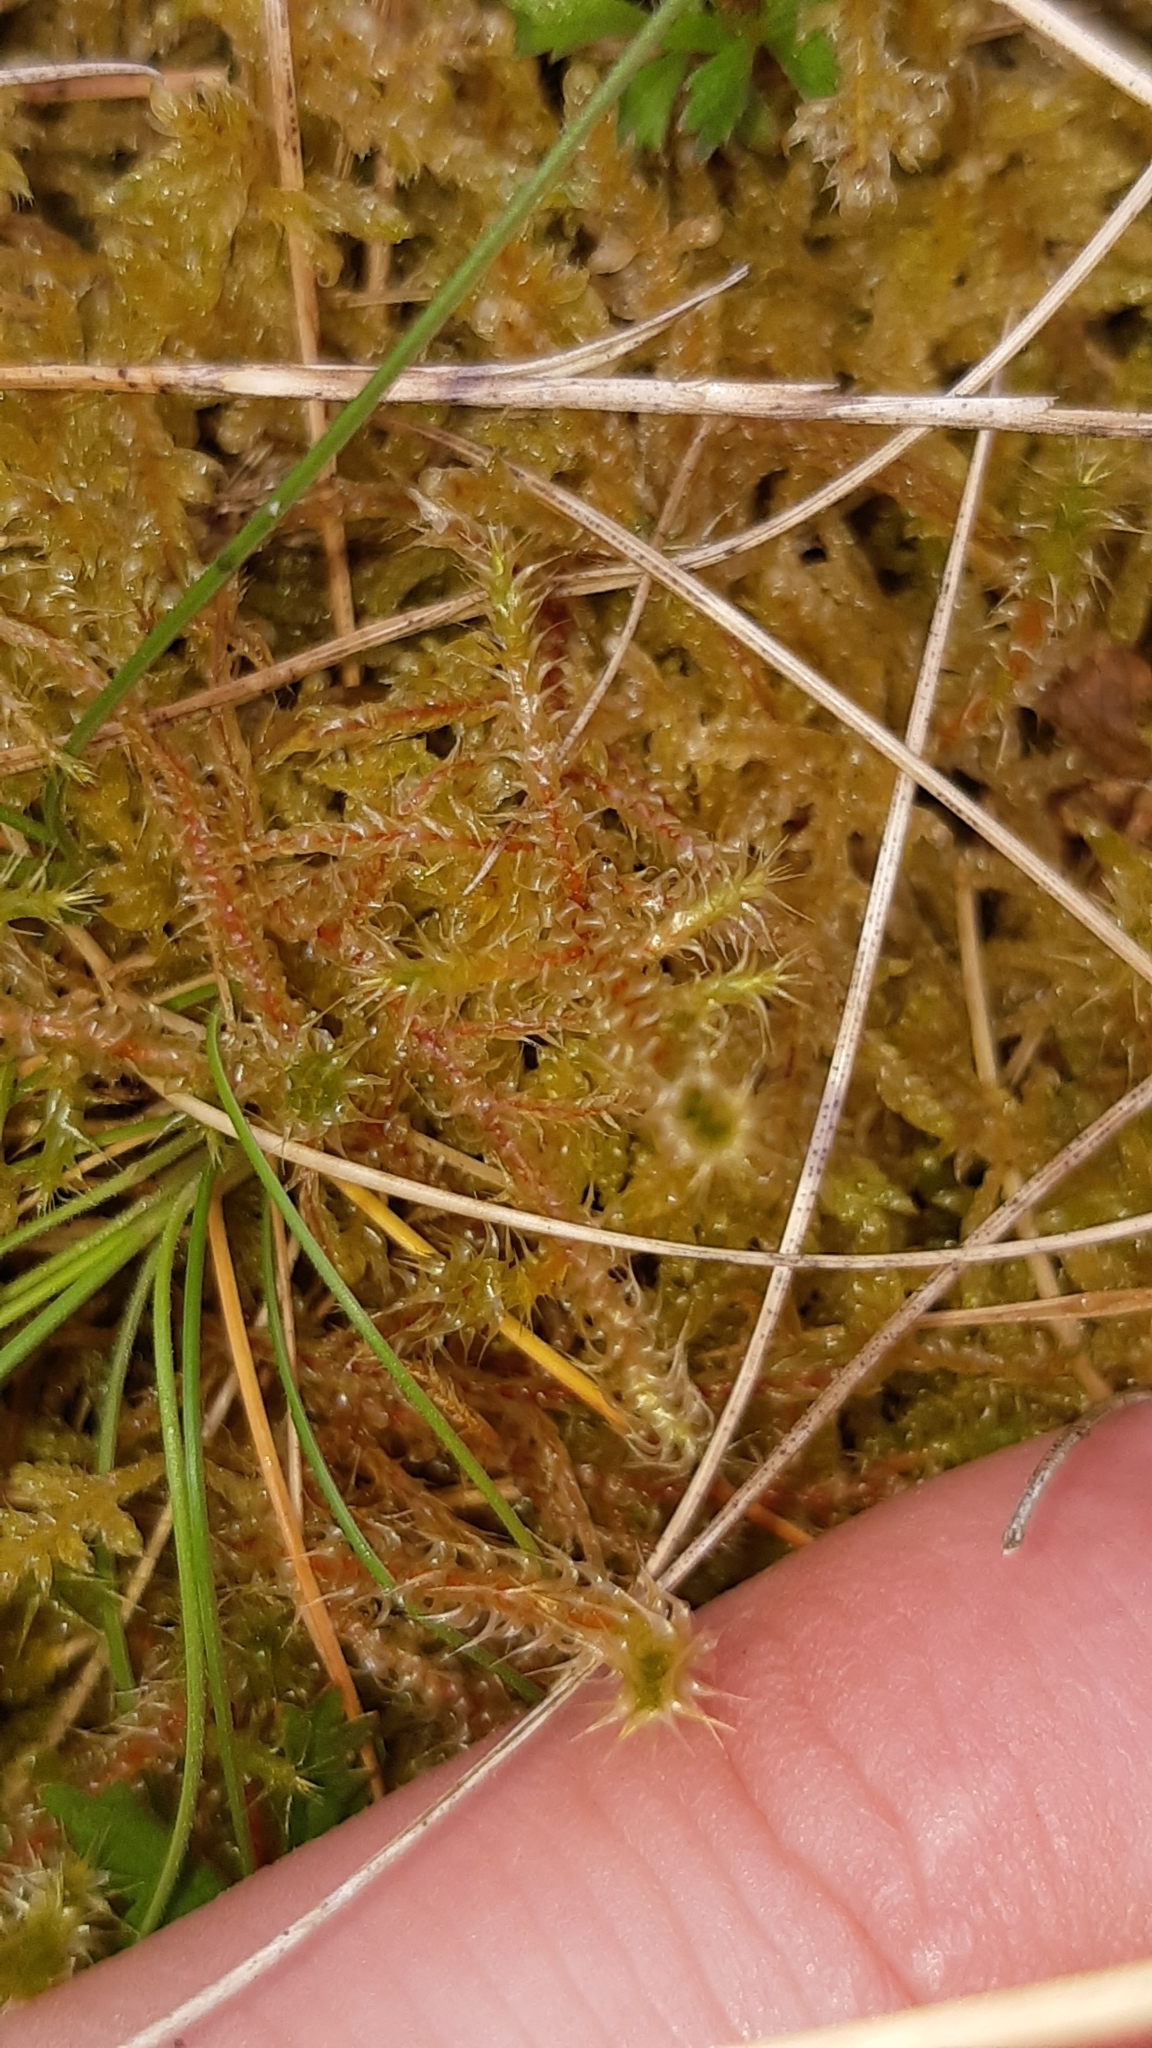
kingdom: Plantae
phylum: Bryophyta
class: Bryopsida
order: Hypnales
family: Hylocomiaceae
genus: Rhytidiadelphus
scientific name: Rhytidiadelphus squarrosus
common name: Springy turf-moss
